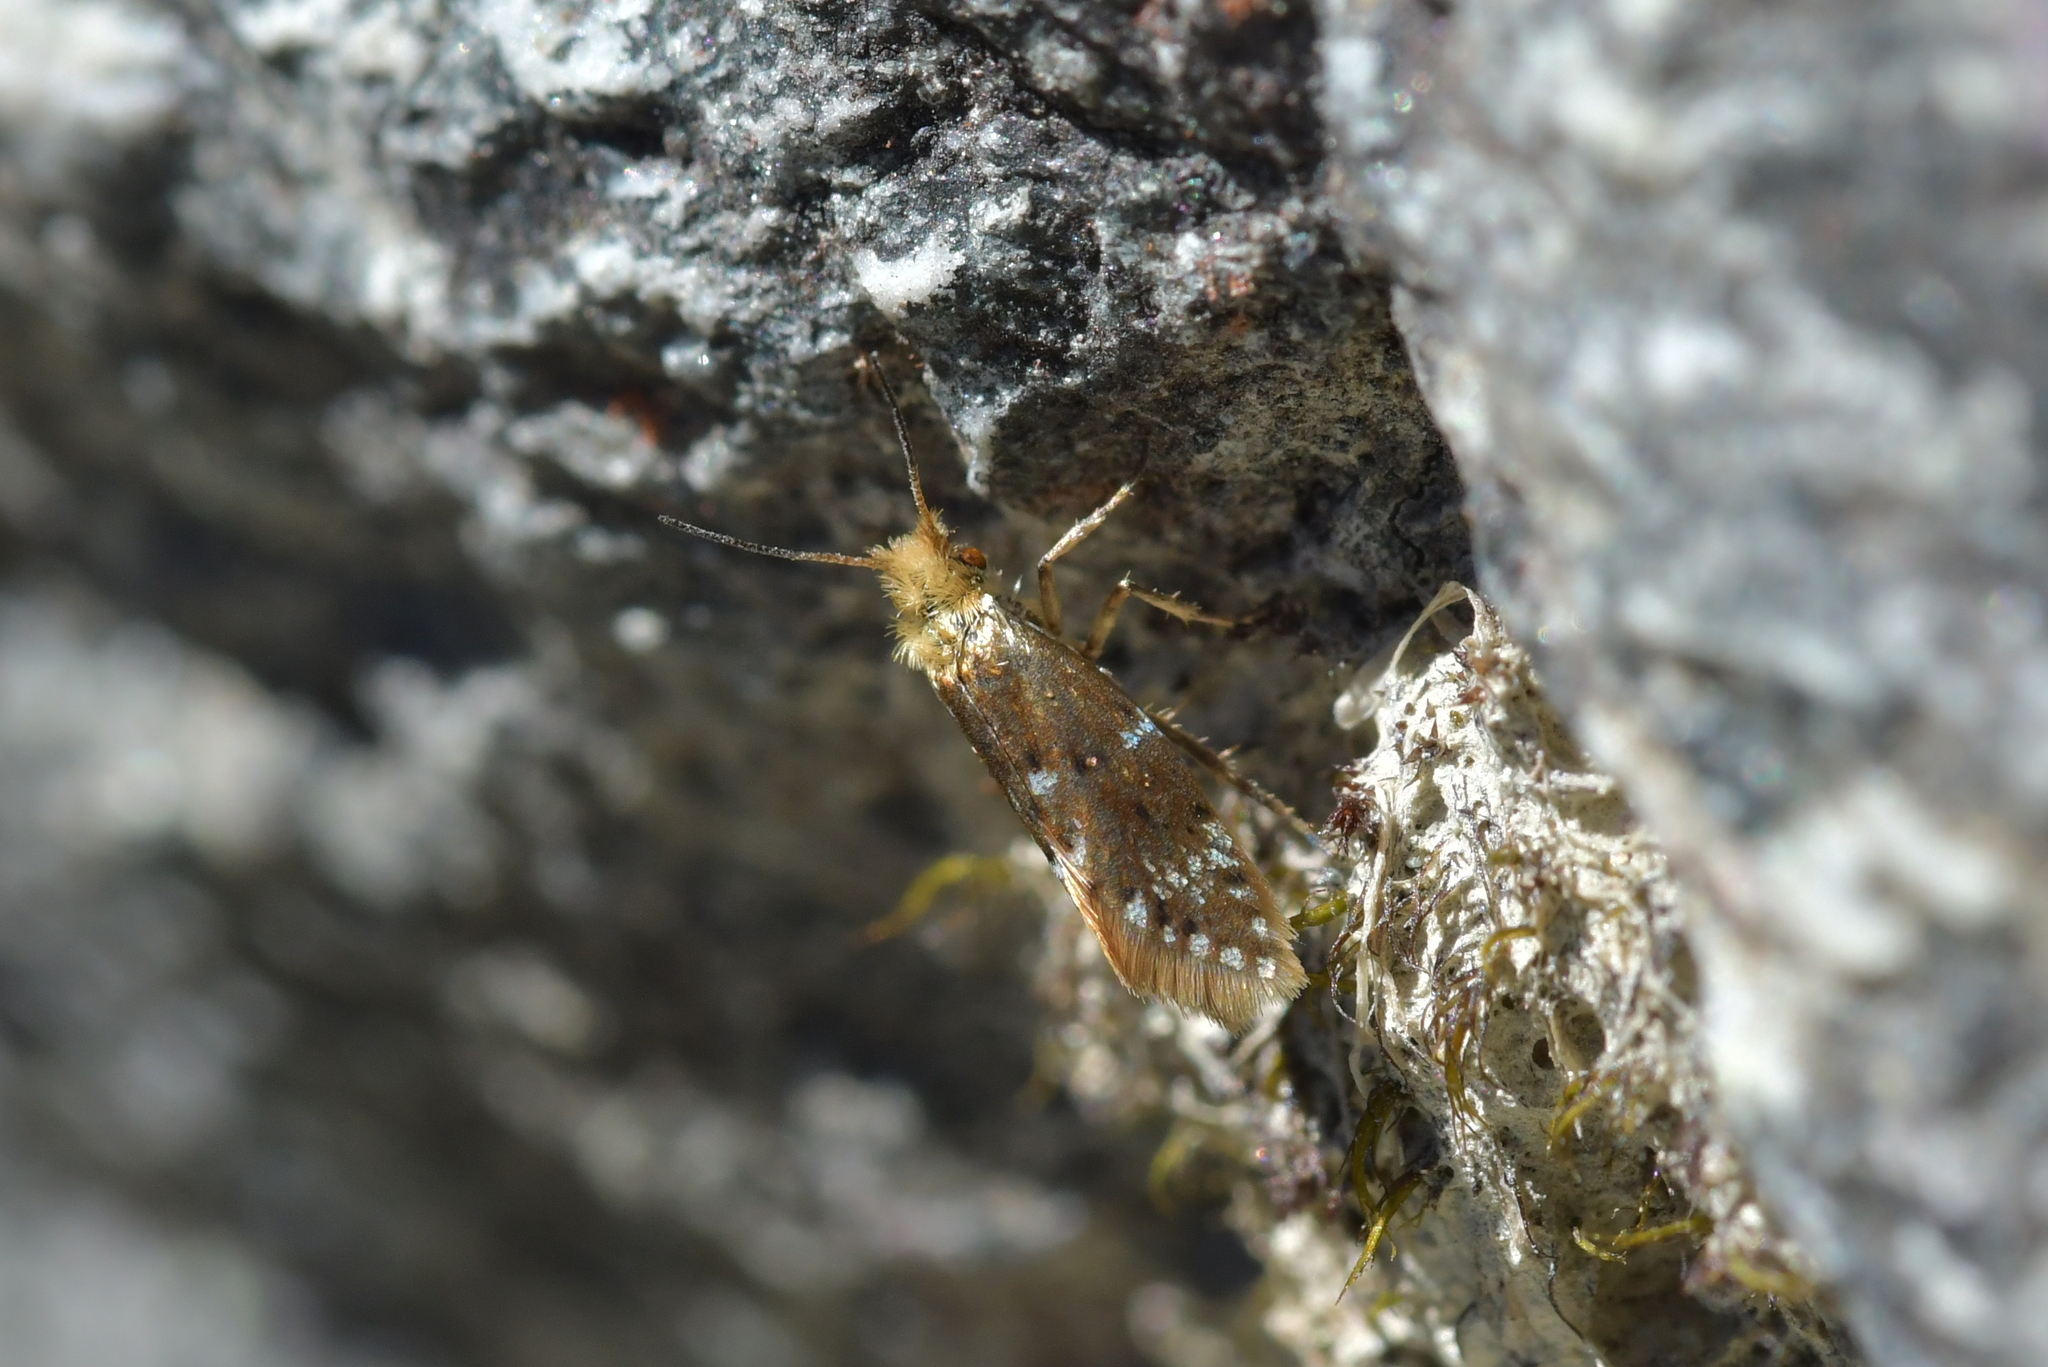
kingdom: Animalia
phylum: Arthropoda
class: Insecta
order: Lepidoptera
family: Micropterigidae
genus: Sabatinca
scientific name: Sabatinca chrysargyra
